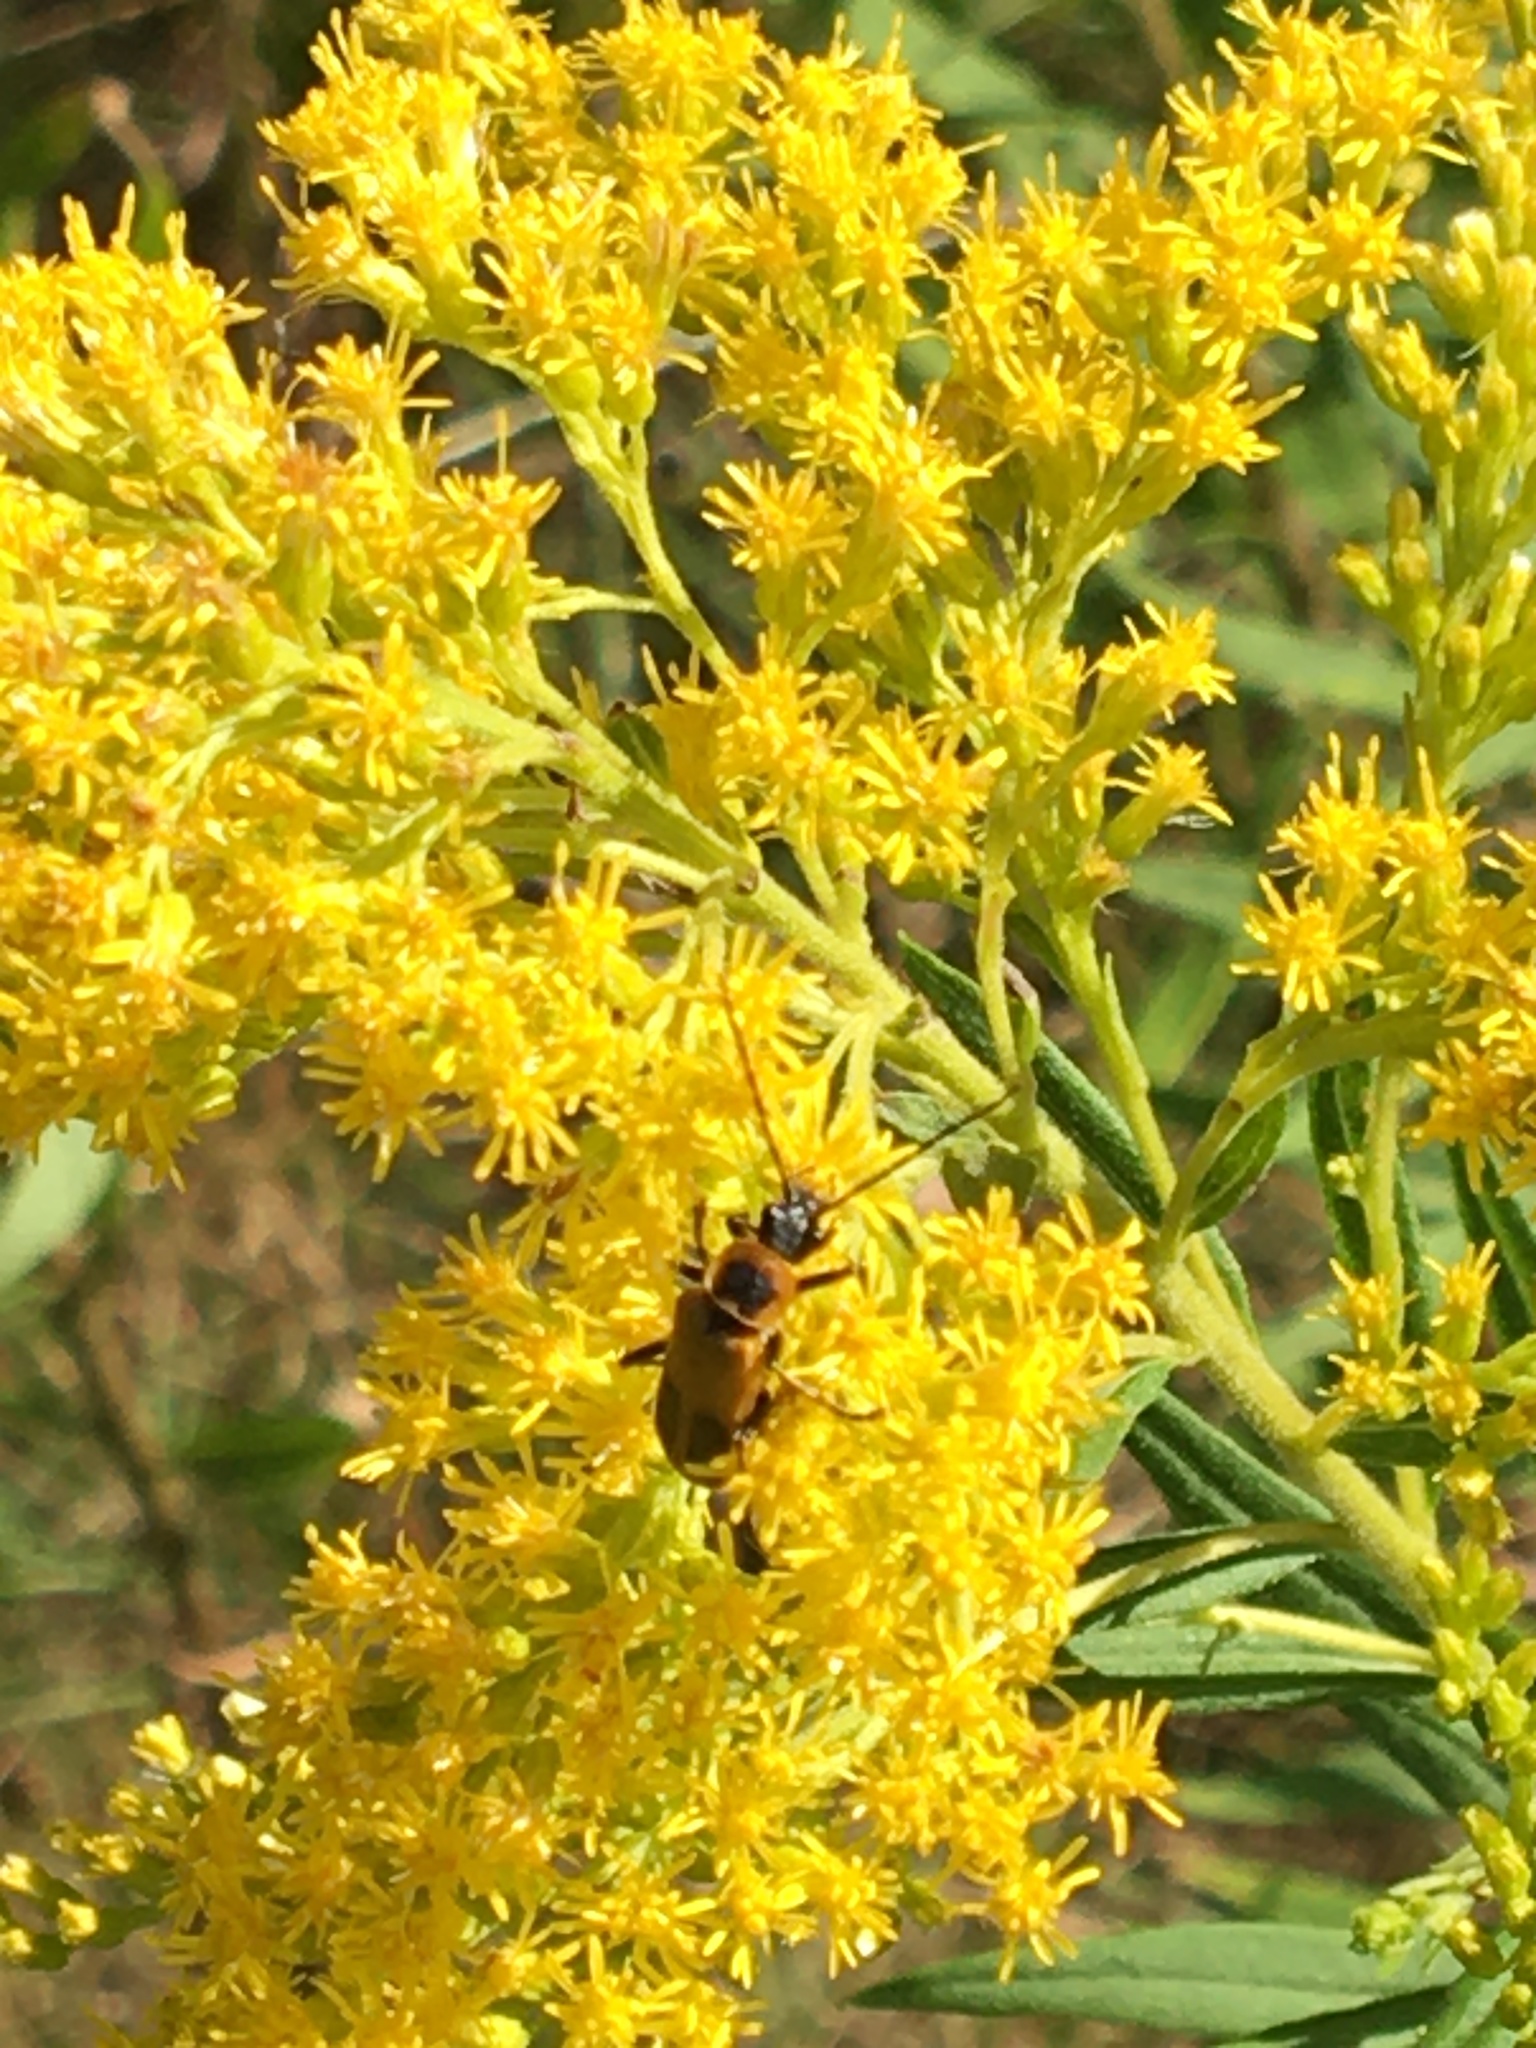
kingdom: Animalia
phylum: Arthropoda
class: Insecta
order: Coleoptera
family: Cantharidae
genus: Chauliognathus
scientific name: Chauliognathus pensylvanicus
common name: Goldenrod soldier beetle
